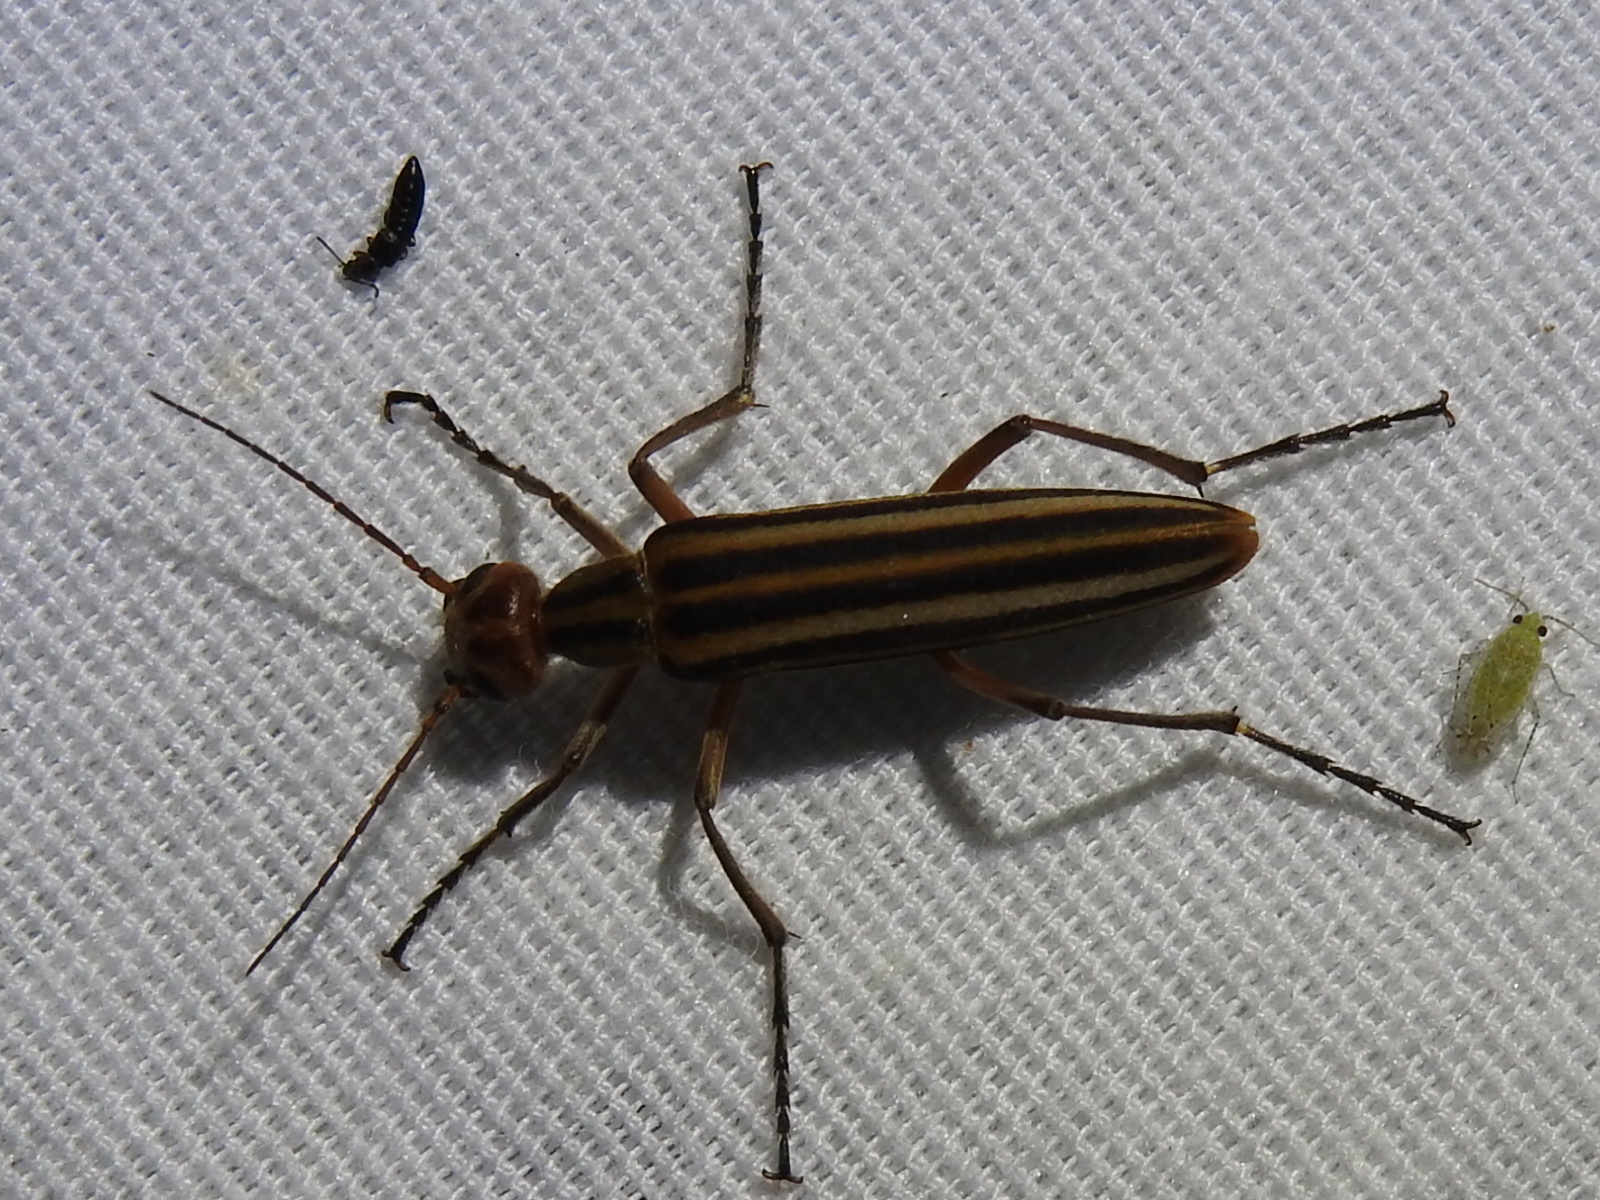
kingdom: Animalia
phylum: Arthropoda
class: Insecta
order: Coleoptera
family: Meloidae
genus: Epicauta
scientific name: Epicauta vittata
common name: Old-fashioned potato beetle
